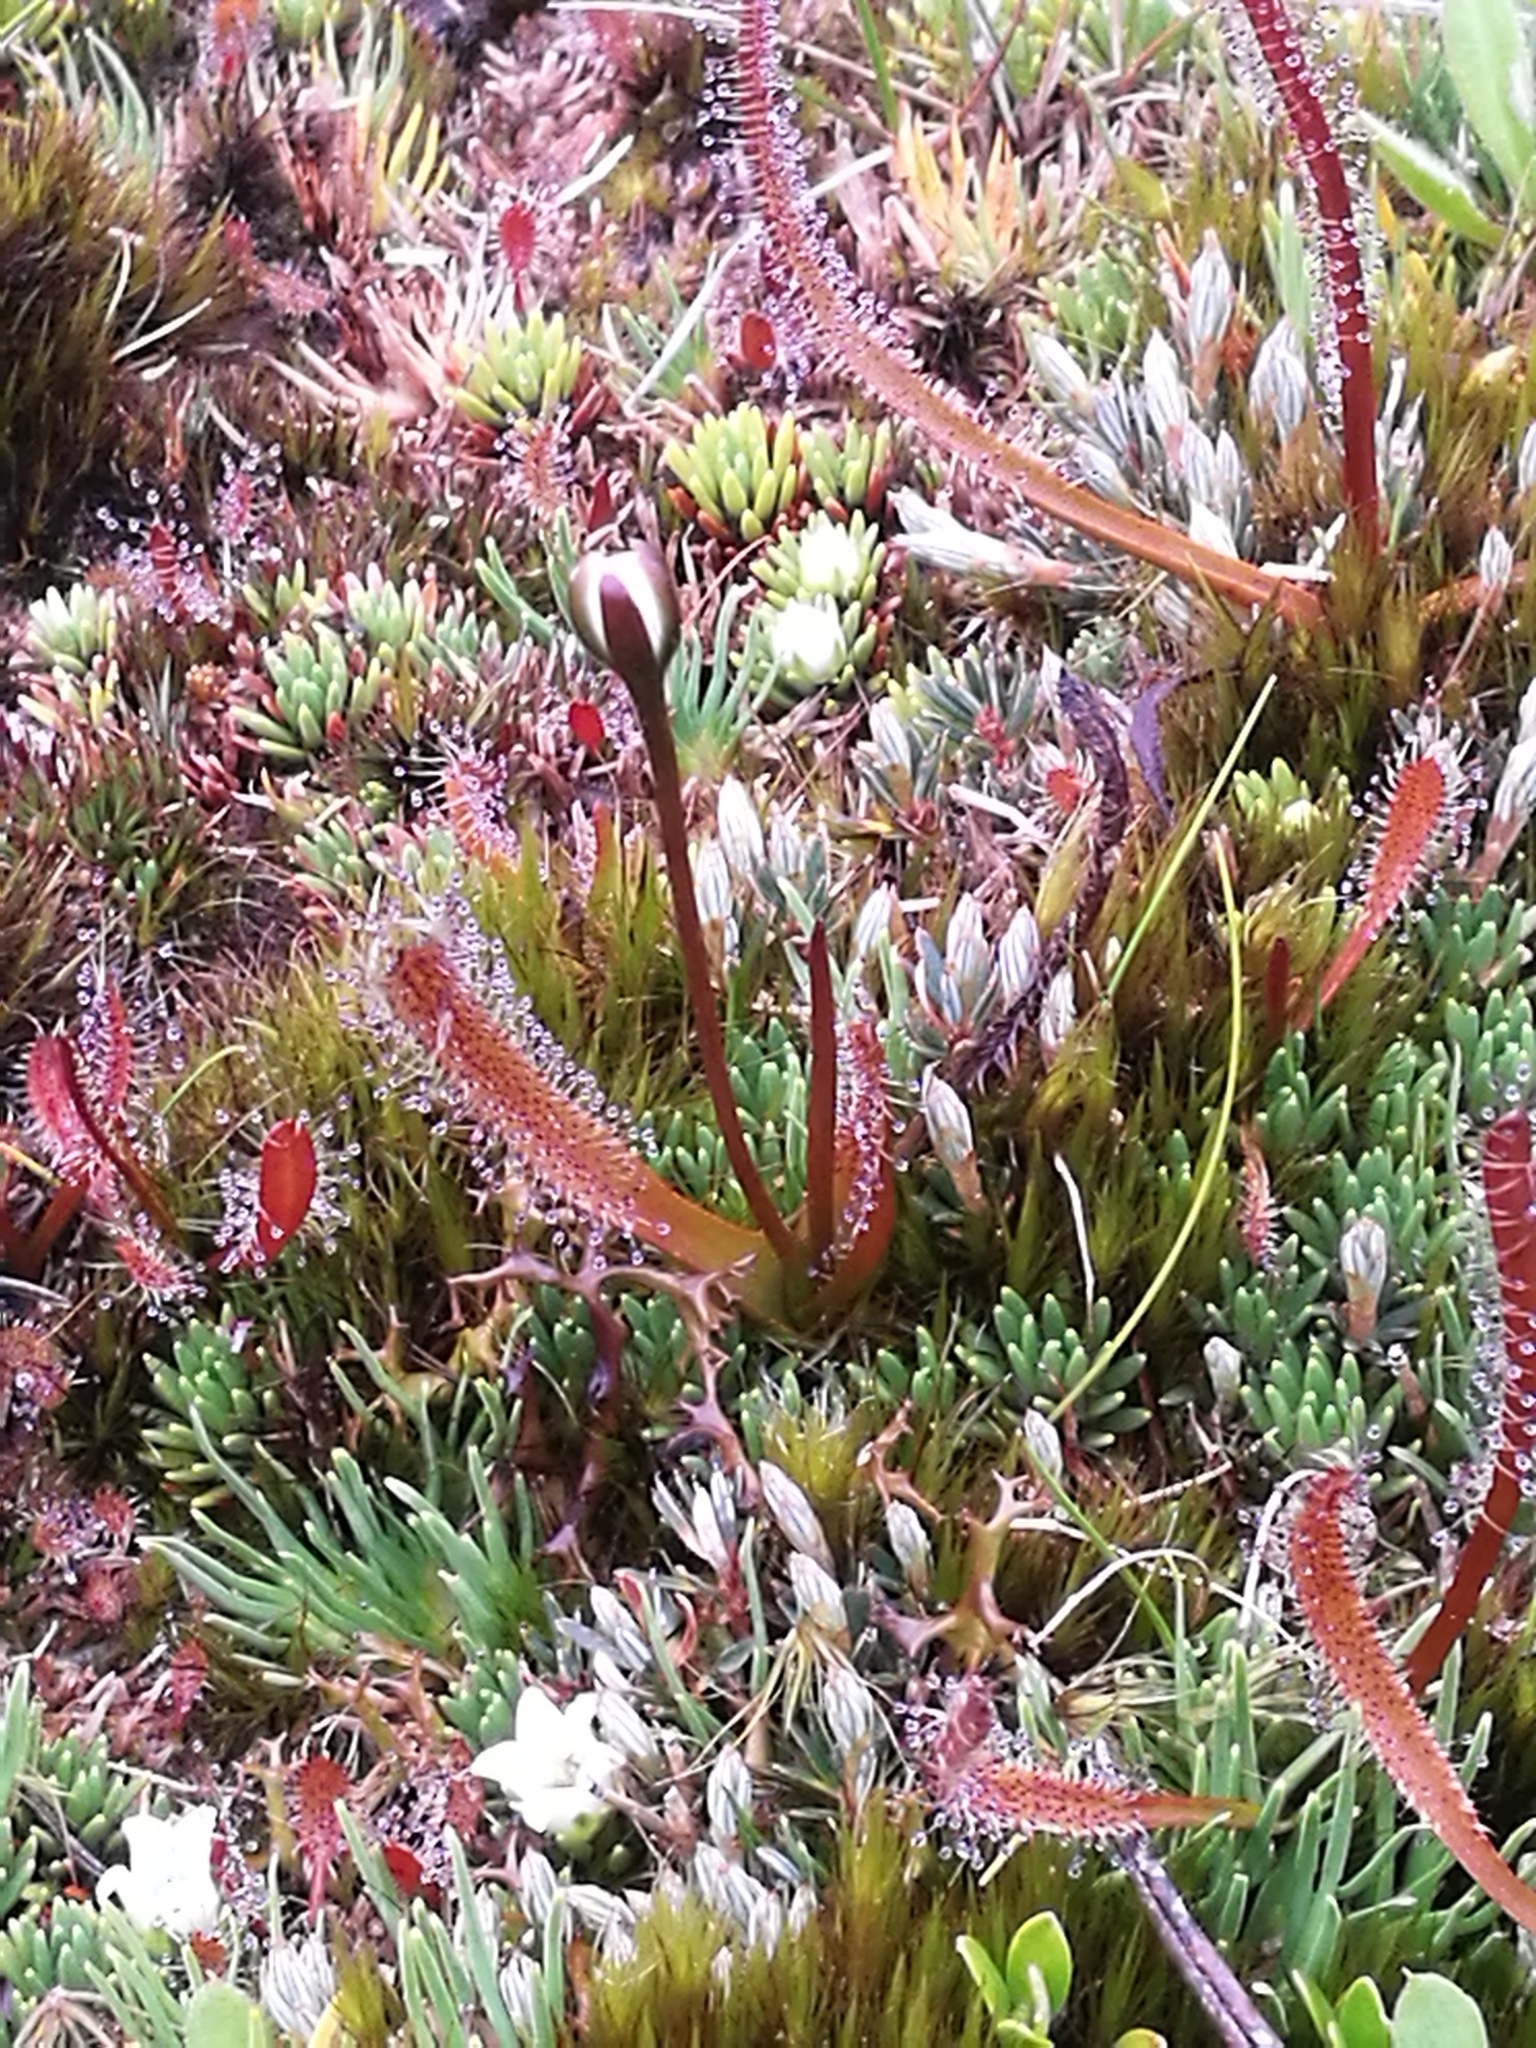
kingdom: Plantae
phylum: Tracheophyta
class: Magnoliopsida
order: Caryophyllales
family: Droseraceae
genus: Drosera
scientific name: Drosera arcturi
